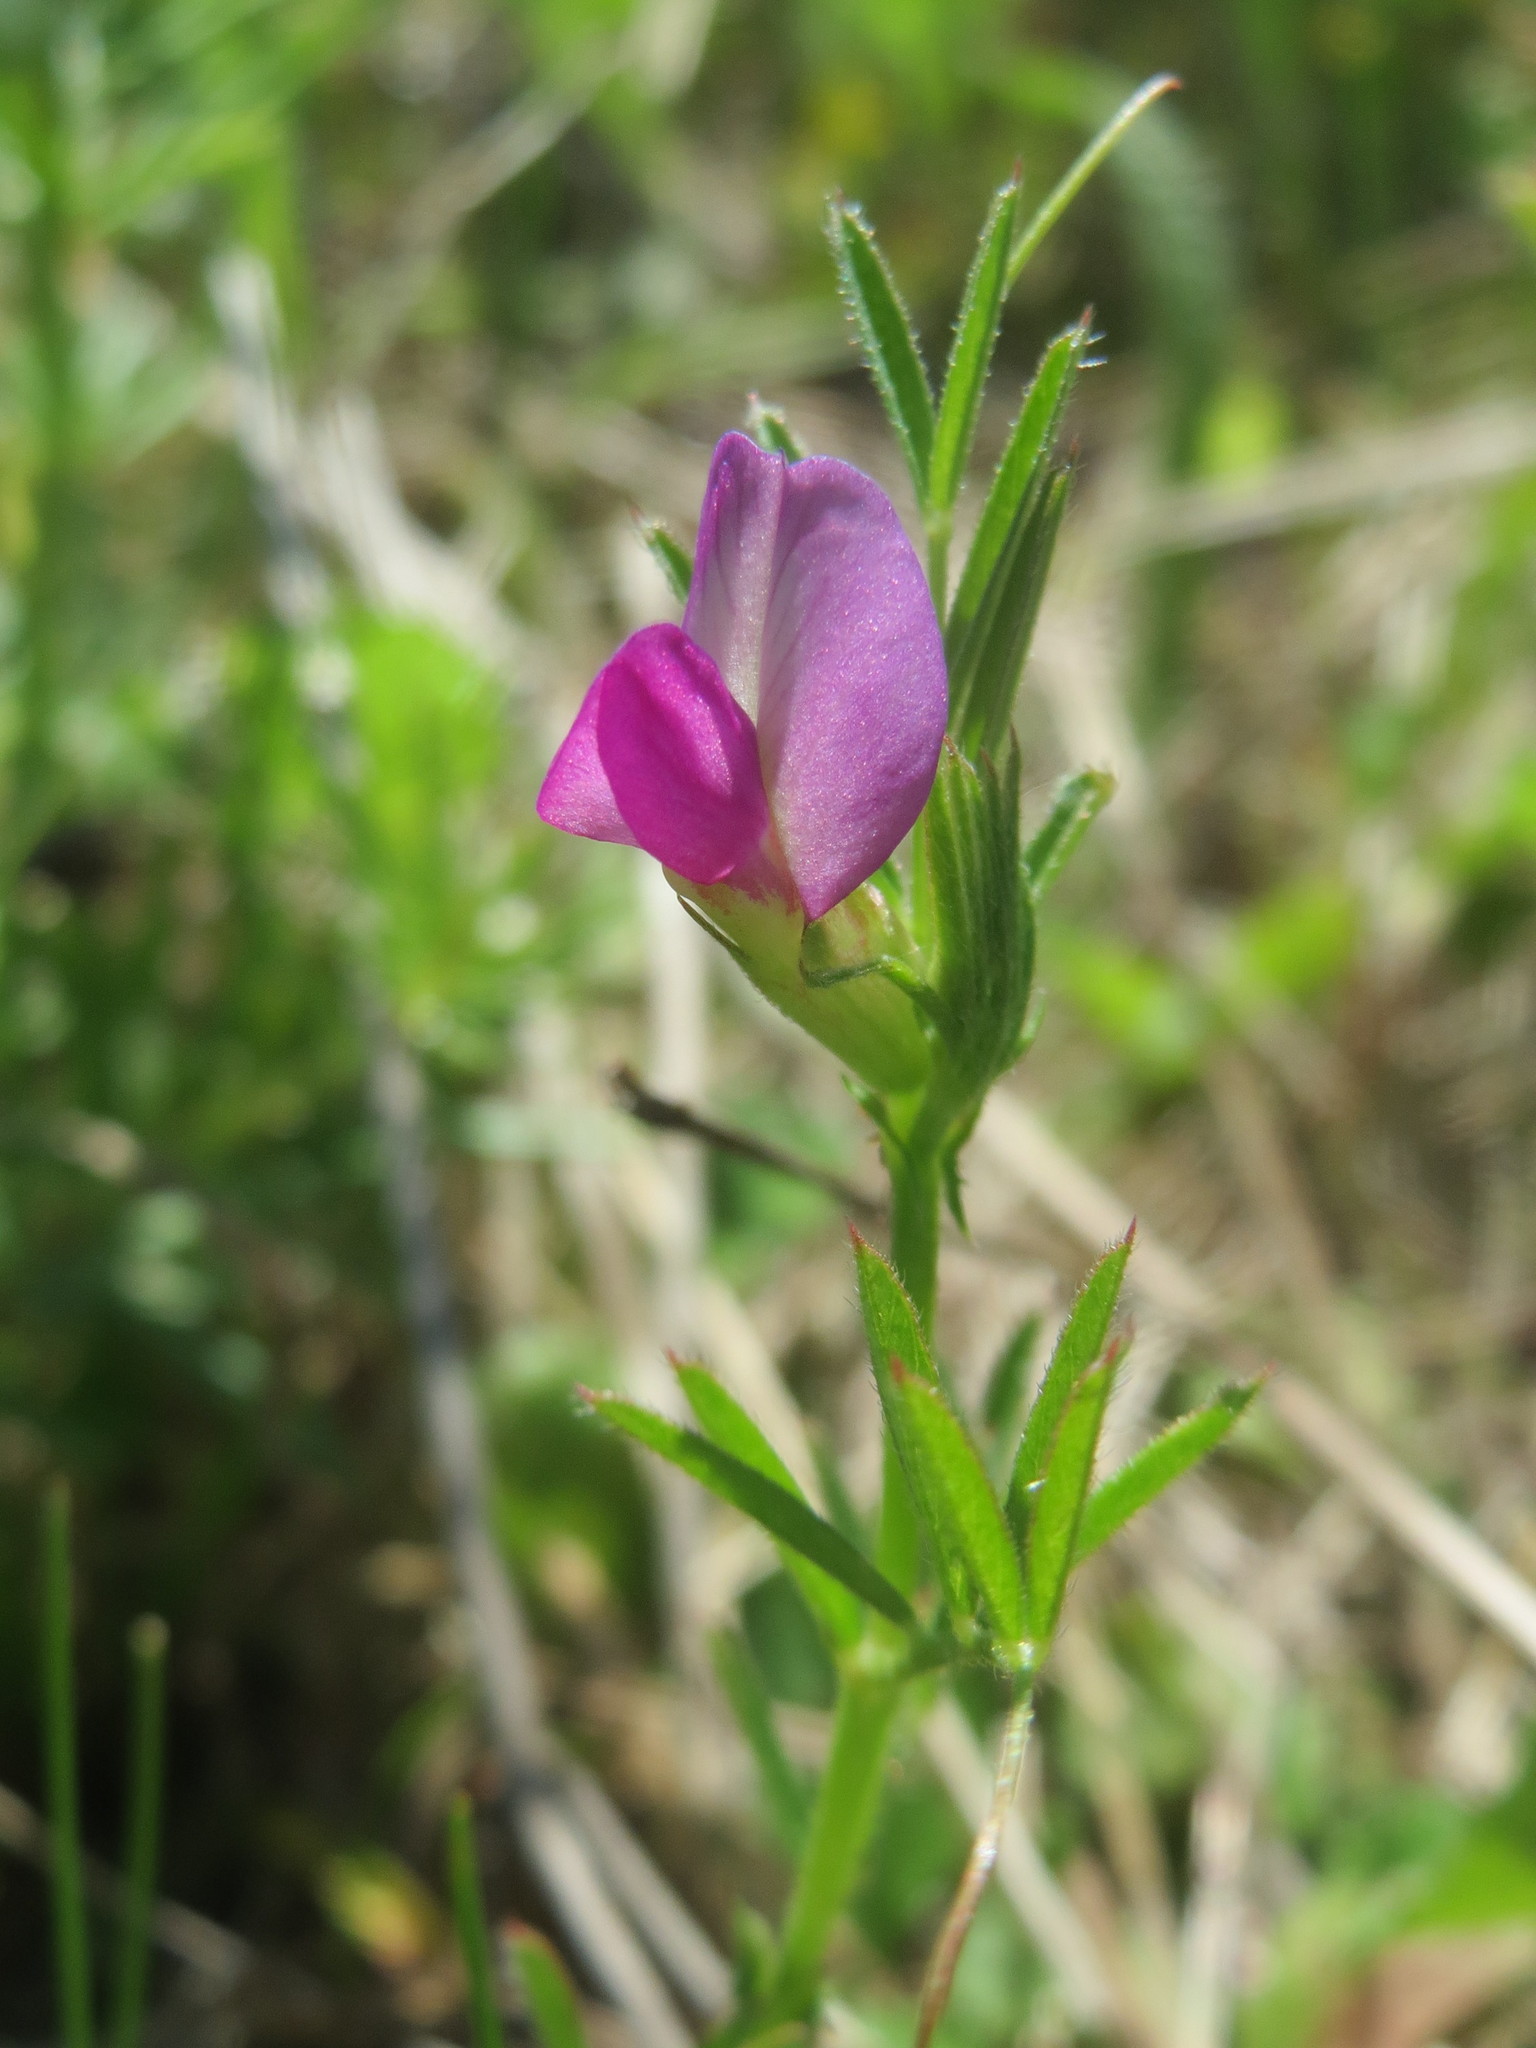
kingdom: Plantae
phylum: Tracheophyta
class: Magnoliopsida
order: Fabales
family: Fabaceae
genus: Vicia
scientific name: Vicia sativa
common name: Garden vetch
